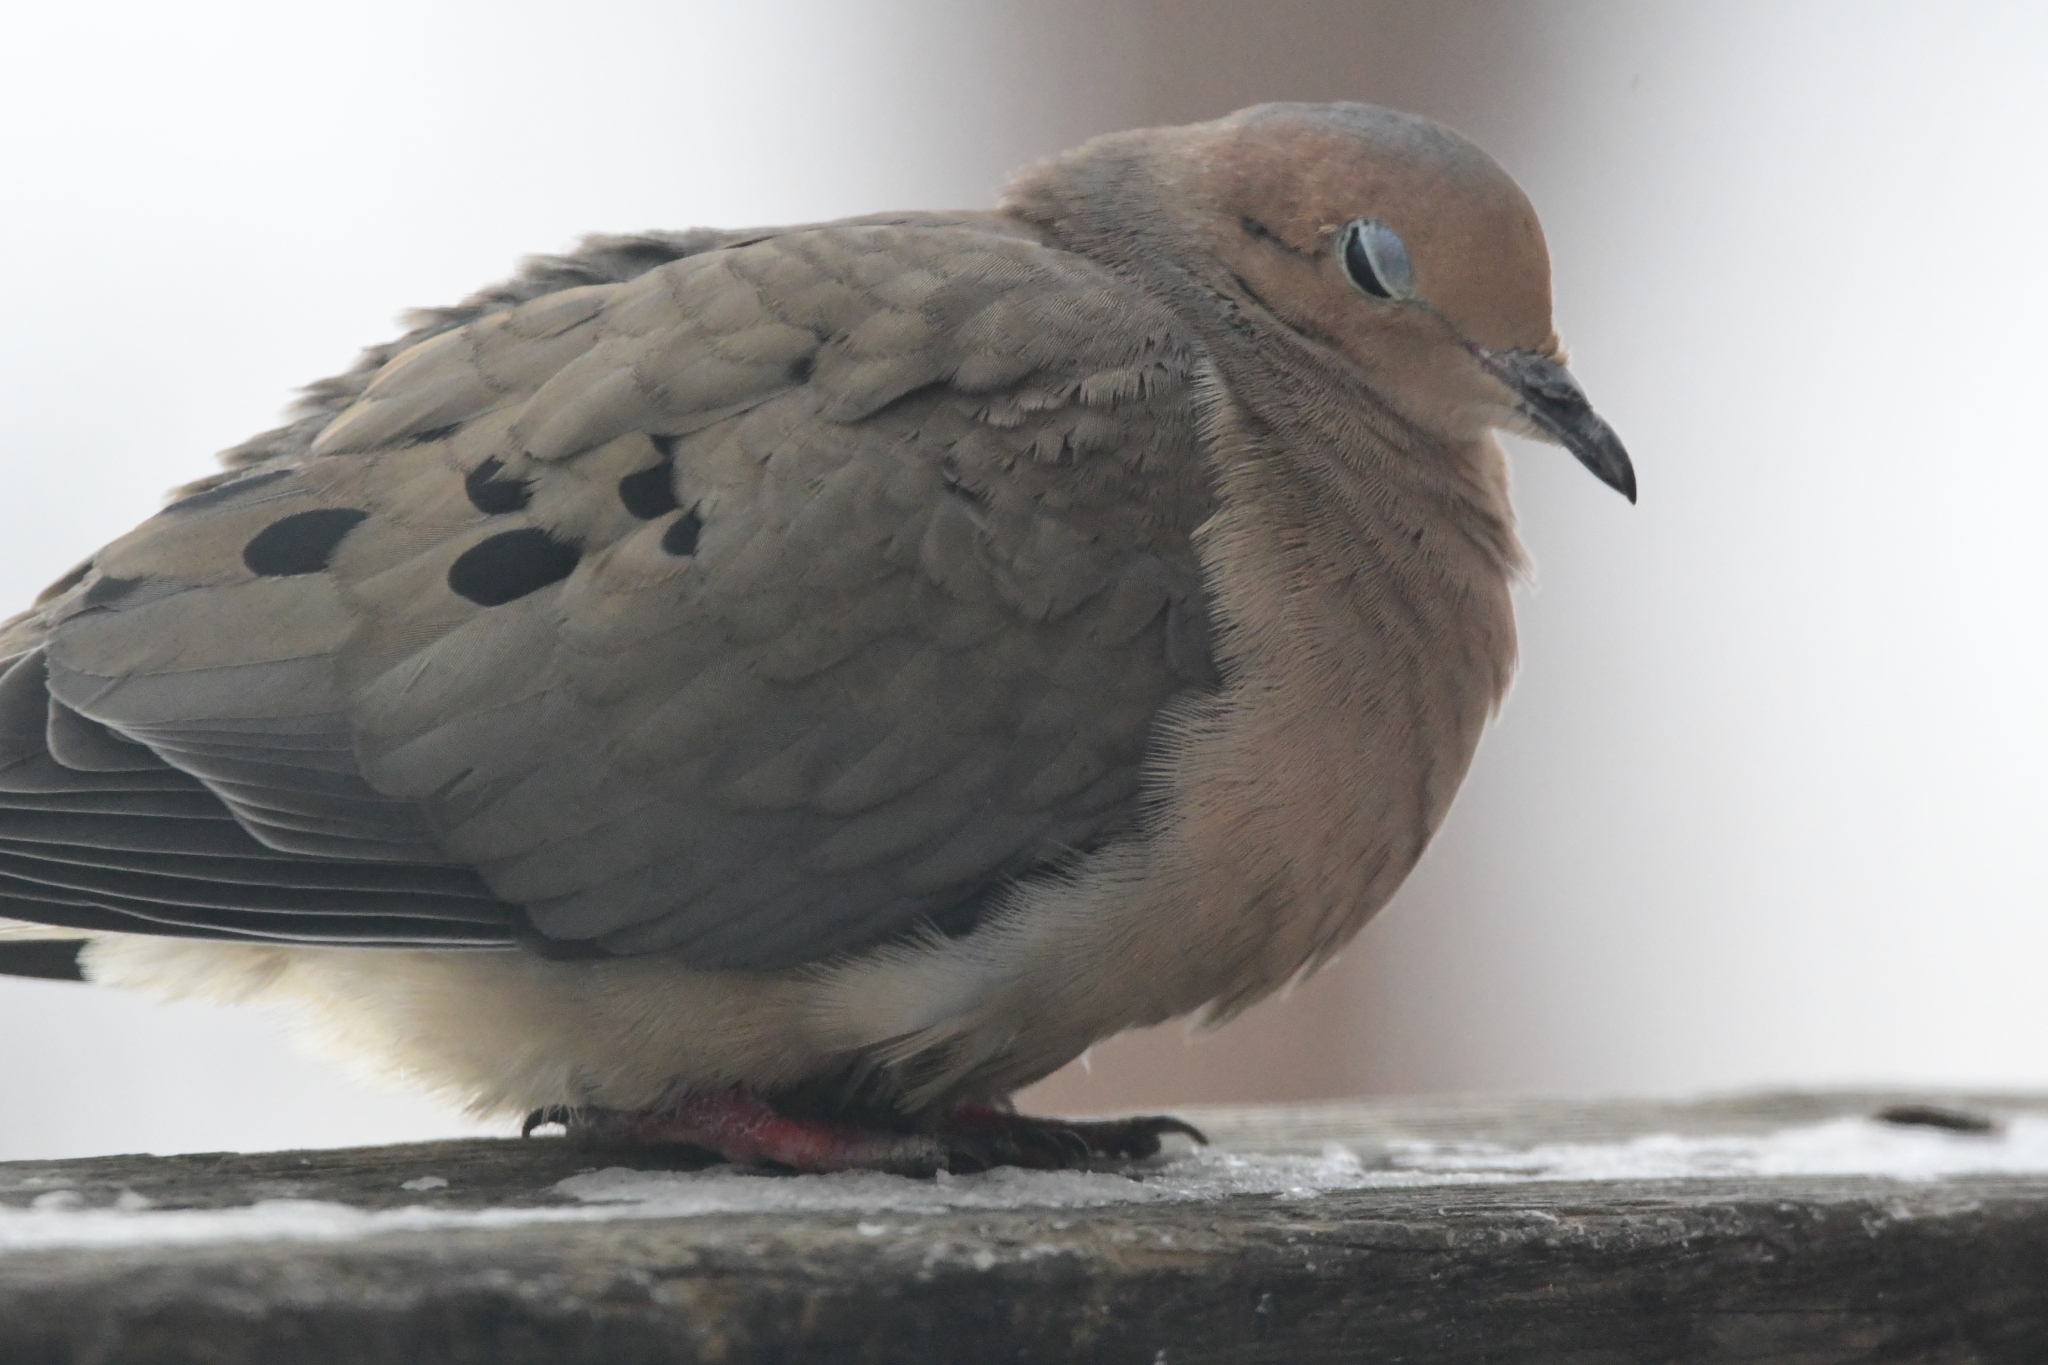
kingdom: Animalia
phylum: Chordata
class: Aves
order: Columbiformes
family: Columbidae
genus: Zenaida
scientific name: Zenaida macroura
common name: Mourning dove
